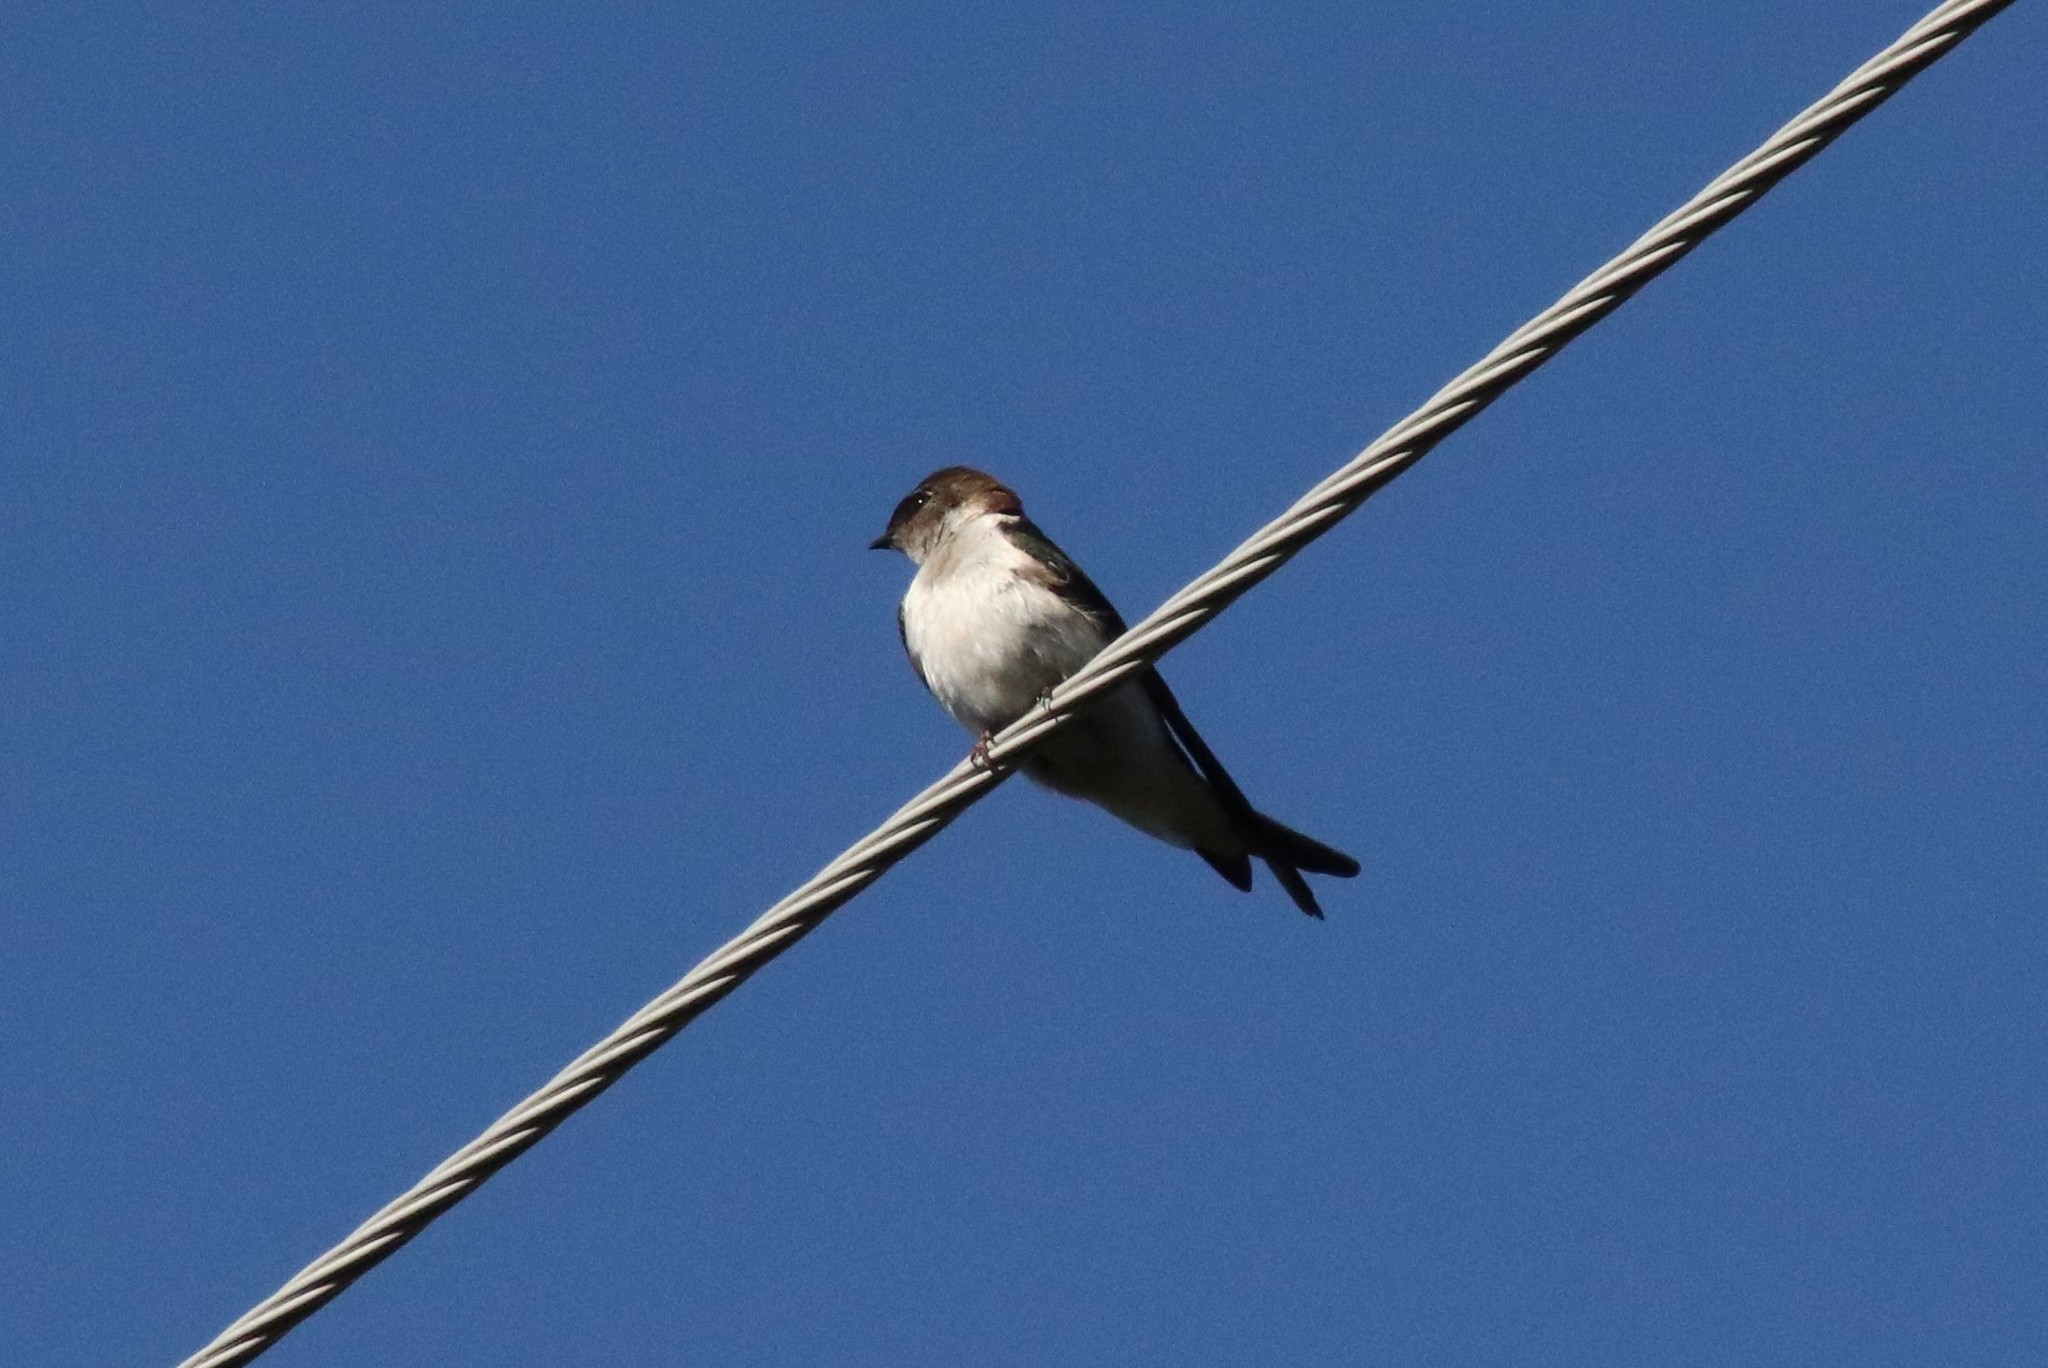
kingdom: Animalia
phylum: Chordata
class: Aves
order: Passeriformes
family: Hirundinidae
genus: Tachycineta
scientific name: Tachycineta thalassina
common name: Violet-green swallow
